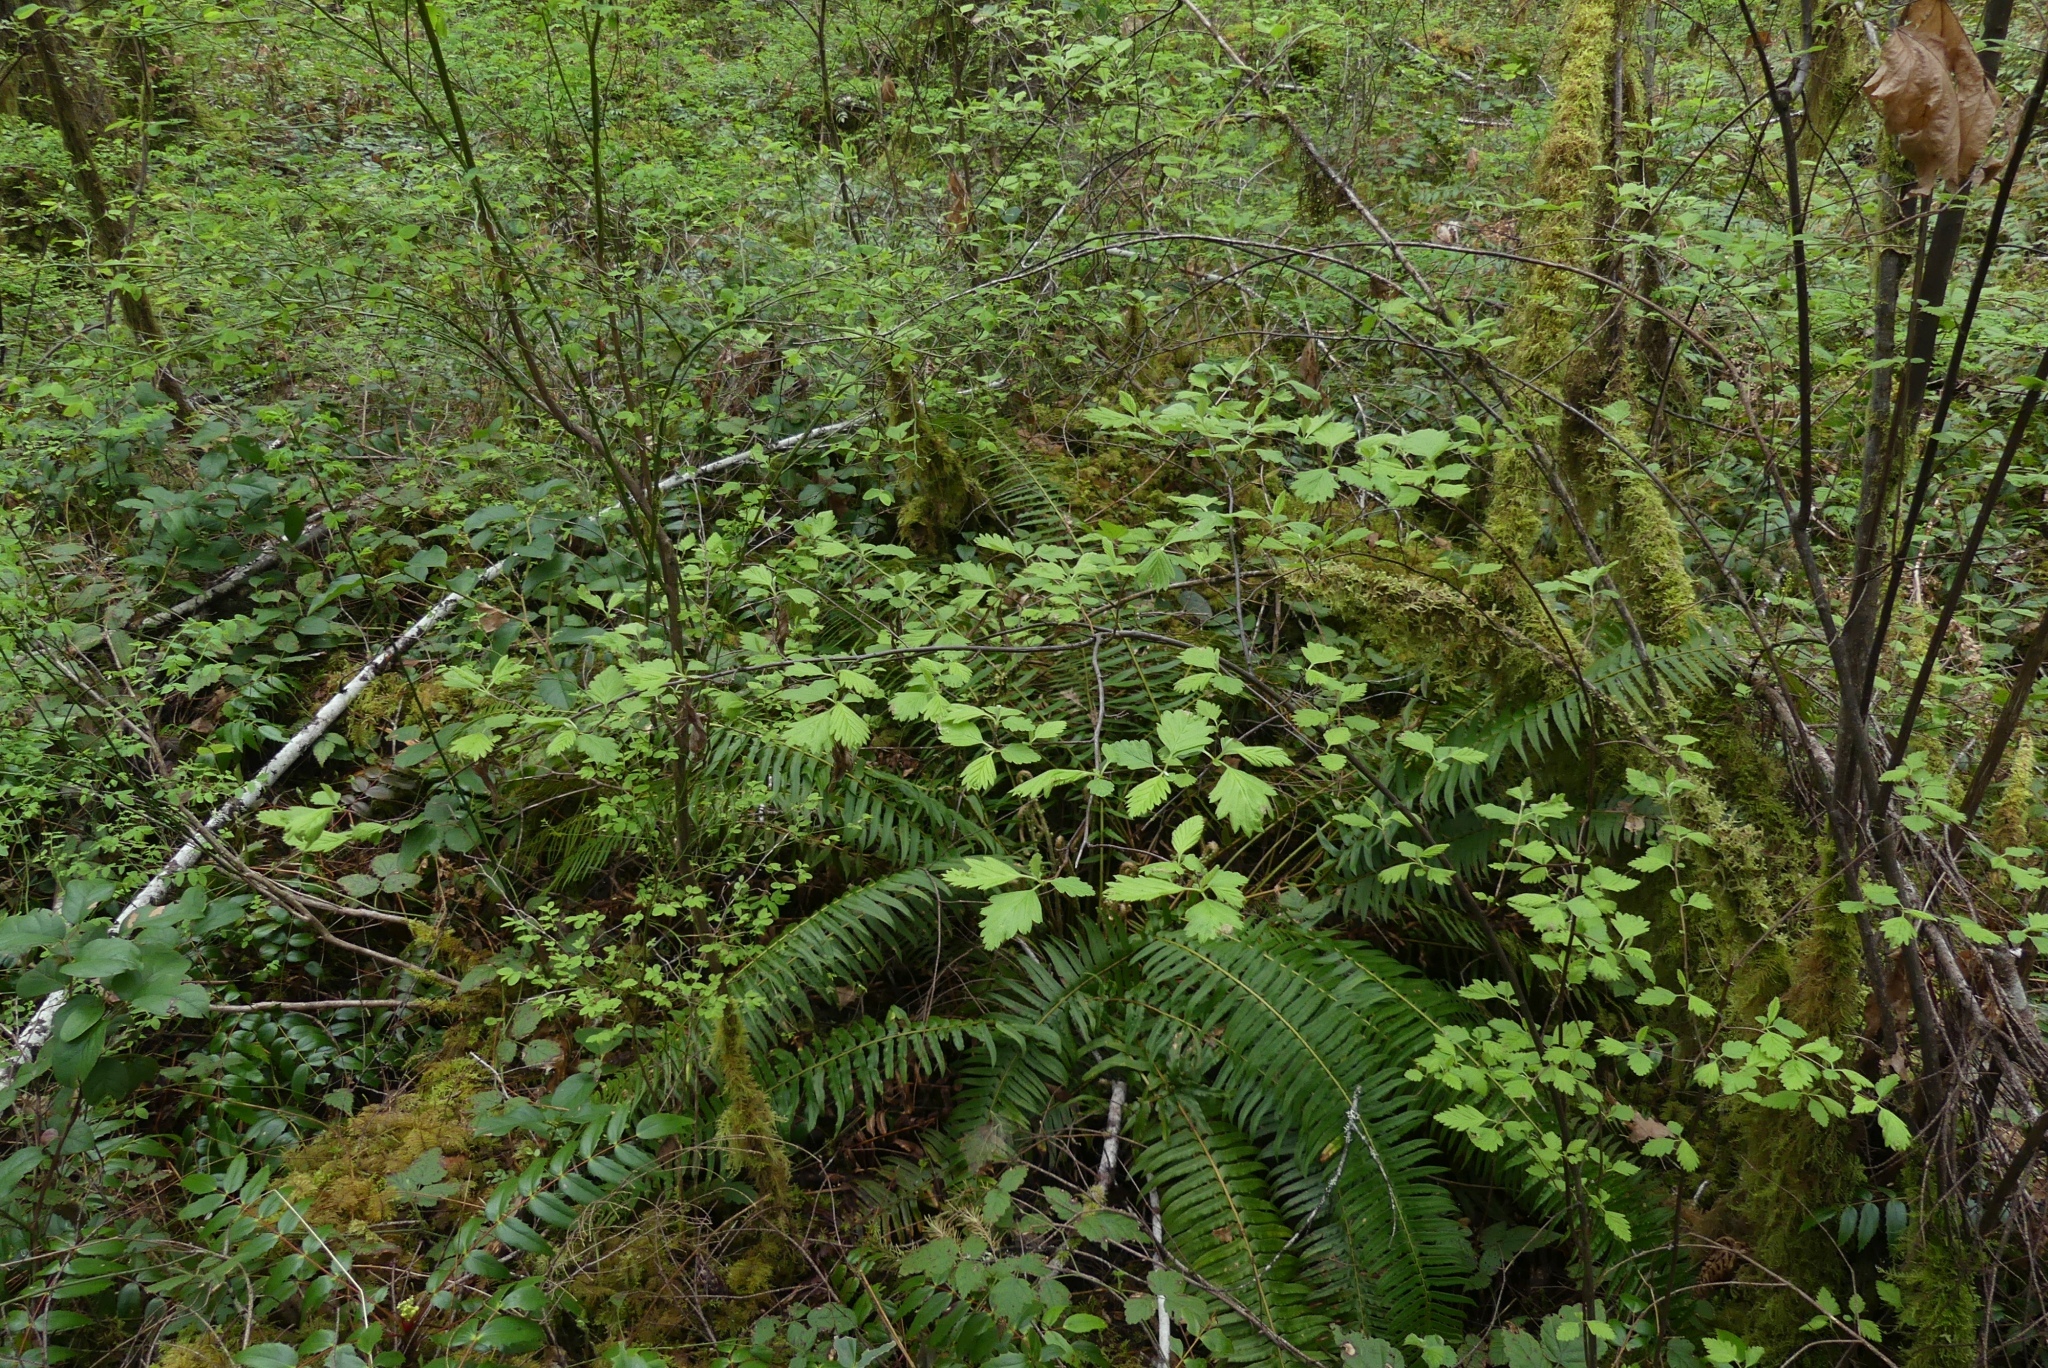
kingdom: Plantae
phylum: Tracheophyta
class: Magnoliopsida
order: Rosales
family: Rosaceae
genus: Holodiscus
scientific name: Holodiscus discolor
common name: Oceanspray
